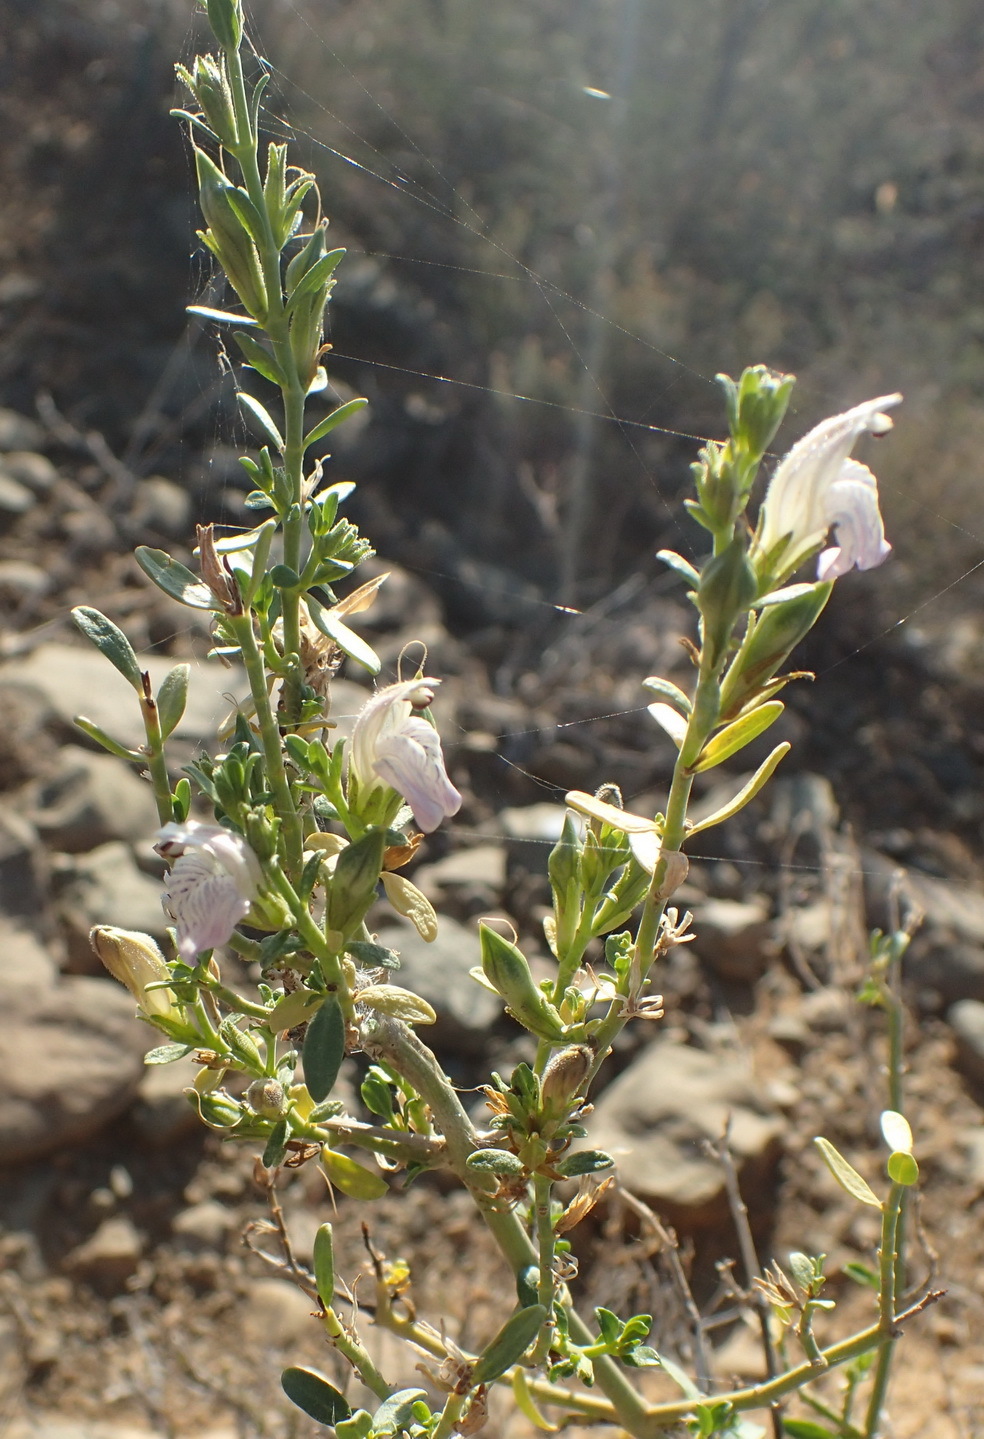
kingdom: Plantae
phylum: Tracheophyta
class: Magnoliopsida
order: Lamiales
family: Acanthaceae
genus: Pogonospermum
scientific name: Pogonospermum
